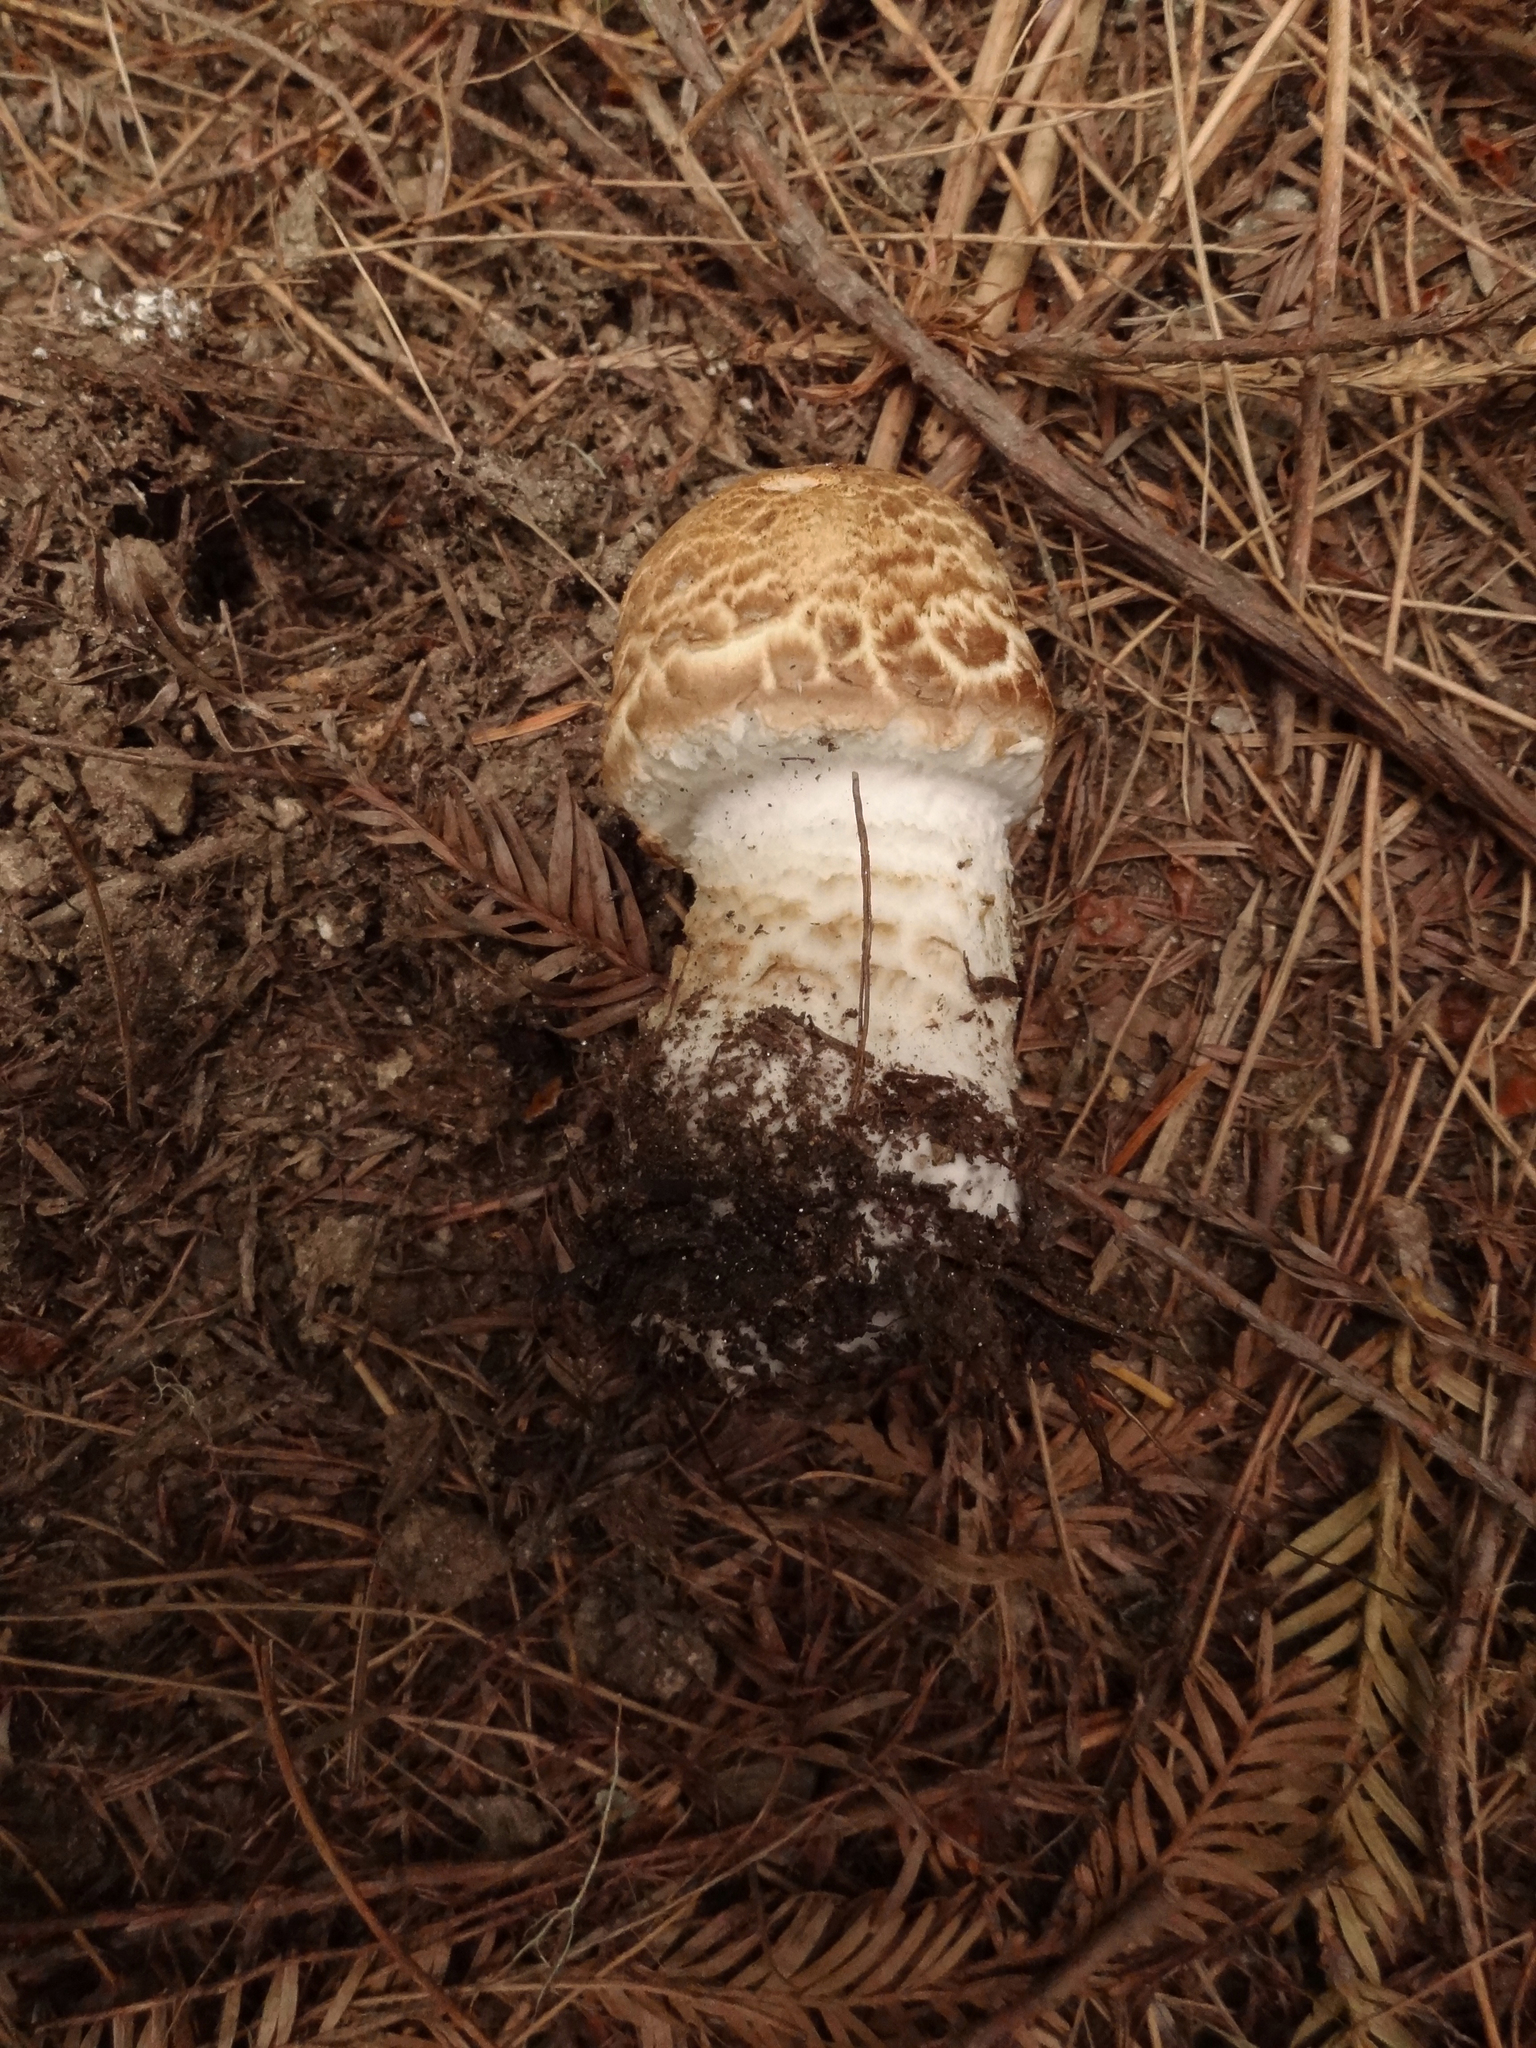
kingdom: Fungi
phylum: Basidiomycota
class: Agaricomycetes
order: Agaricales
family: Agaricaceae
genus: Agaricus
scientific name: Agaricus augustus
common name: Prince
